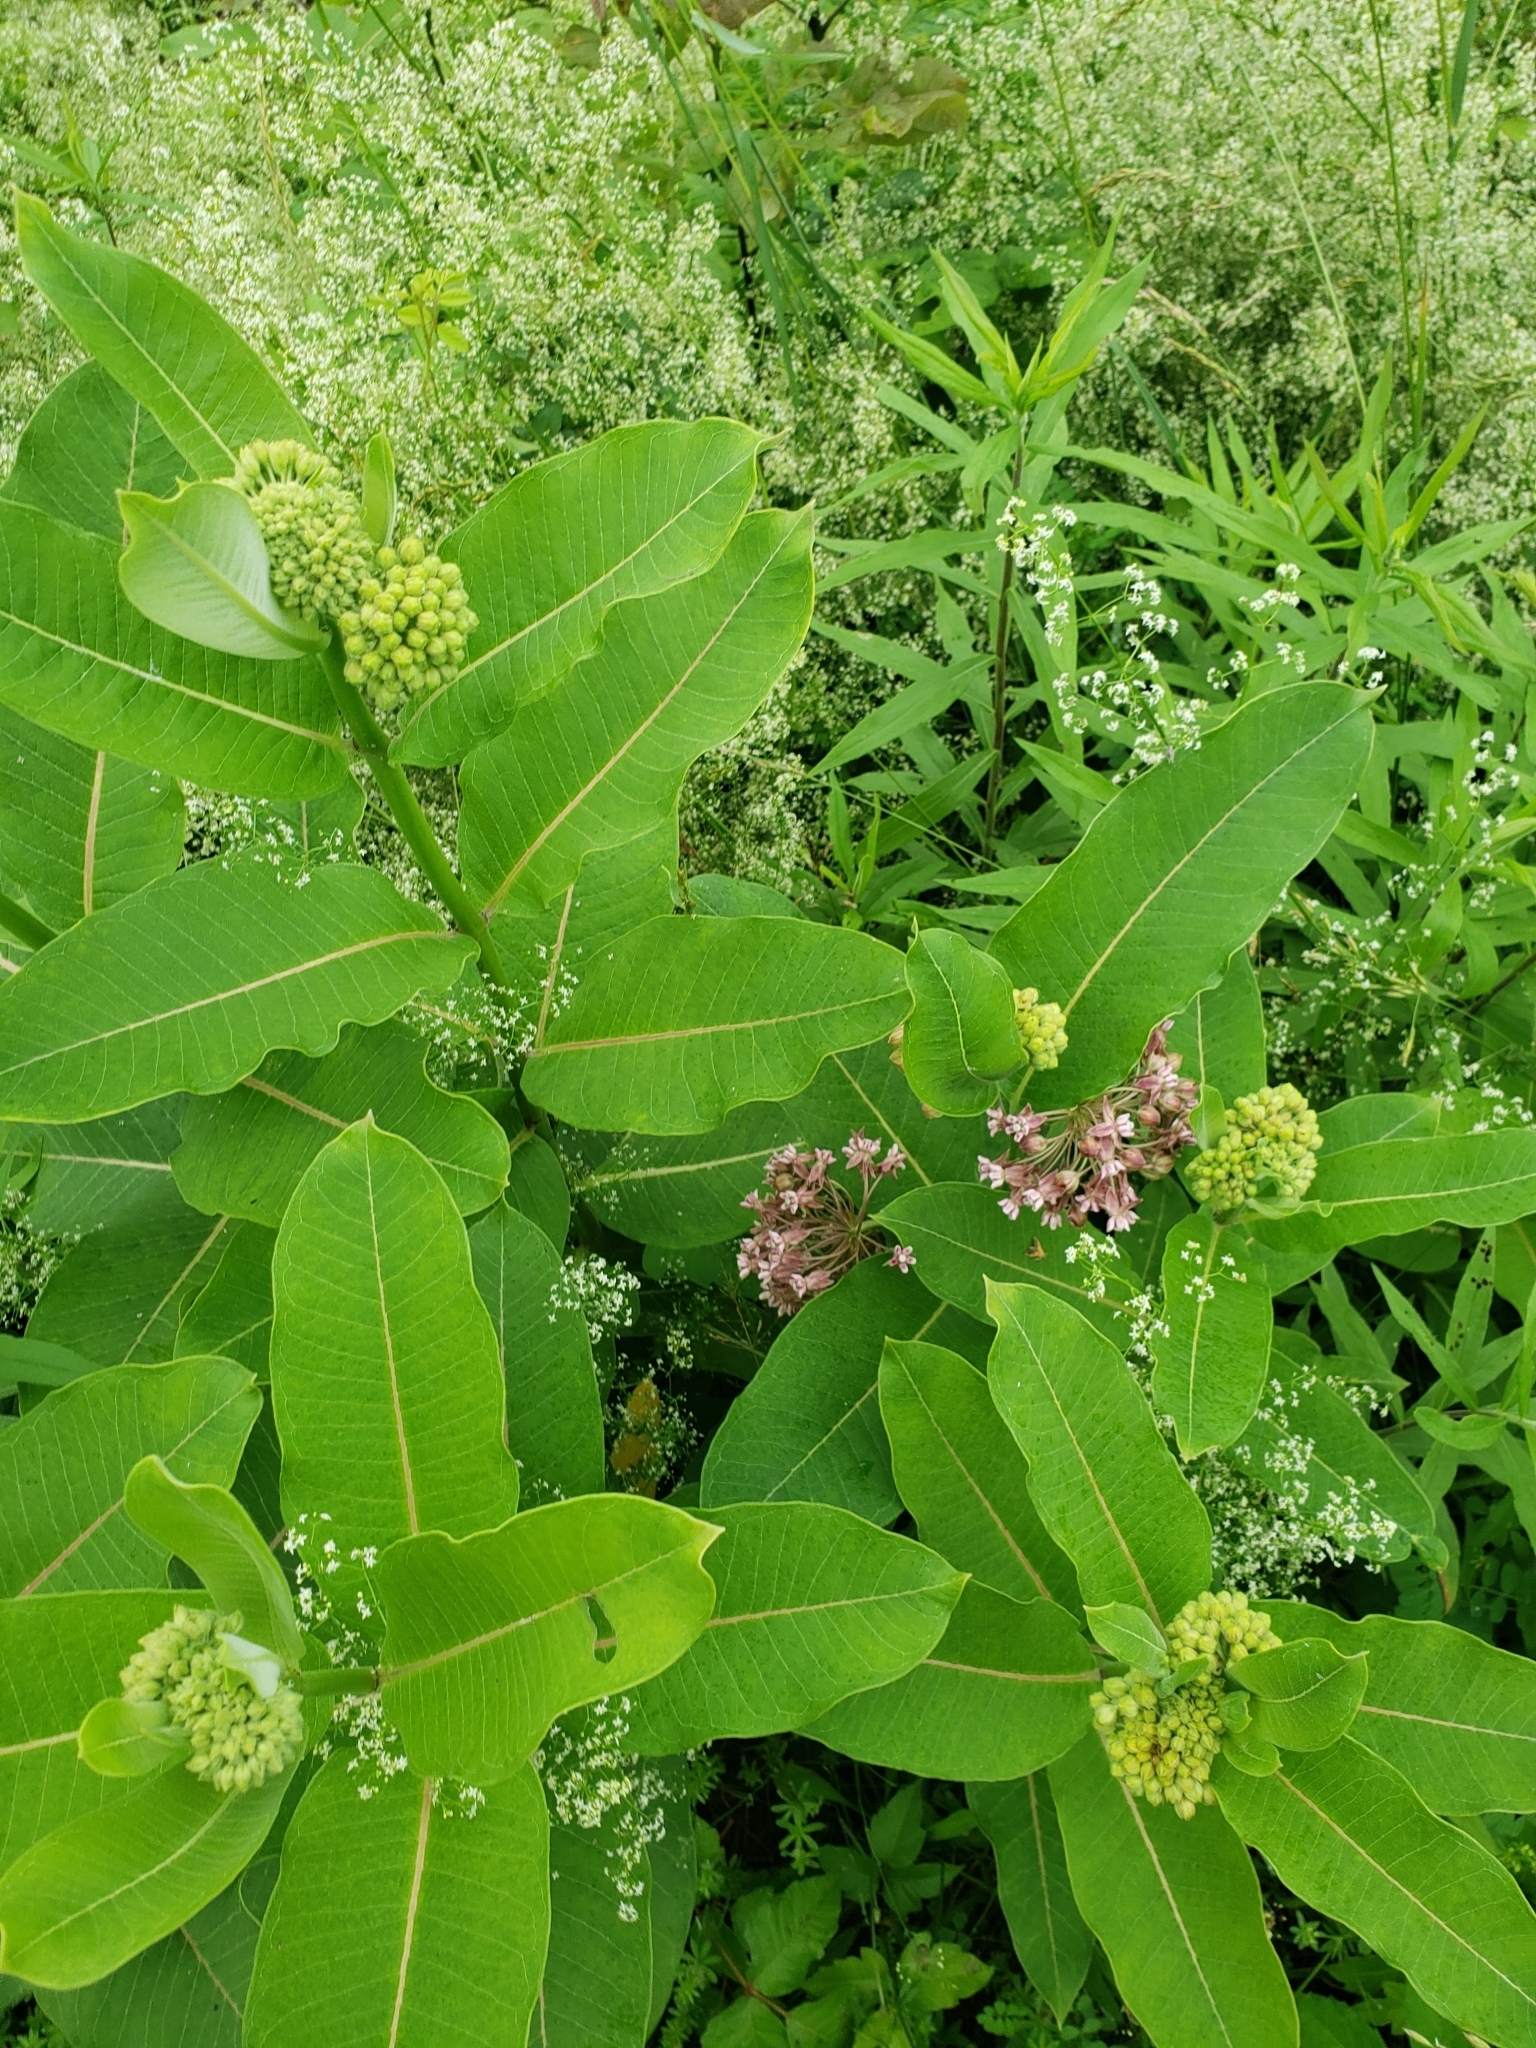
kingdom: Plantae
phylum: Tracheophyta
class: Magnoliopsida
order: Gentianales
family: Apocynaceae
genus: Asclepias
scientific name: Asclepias syriaca
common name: Common milkweed
